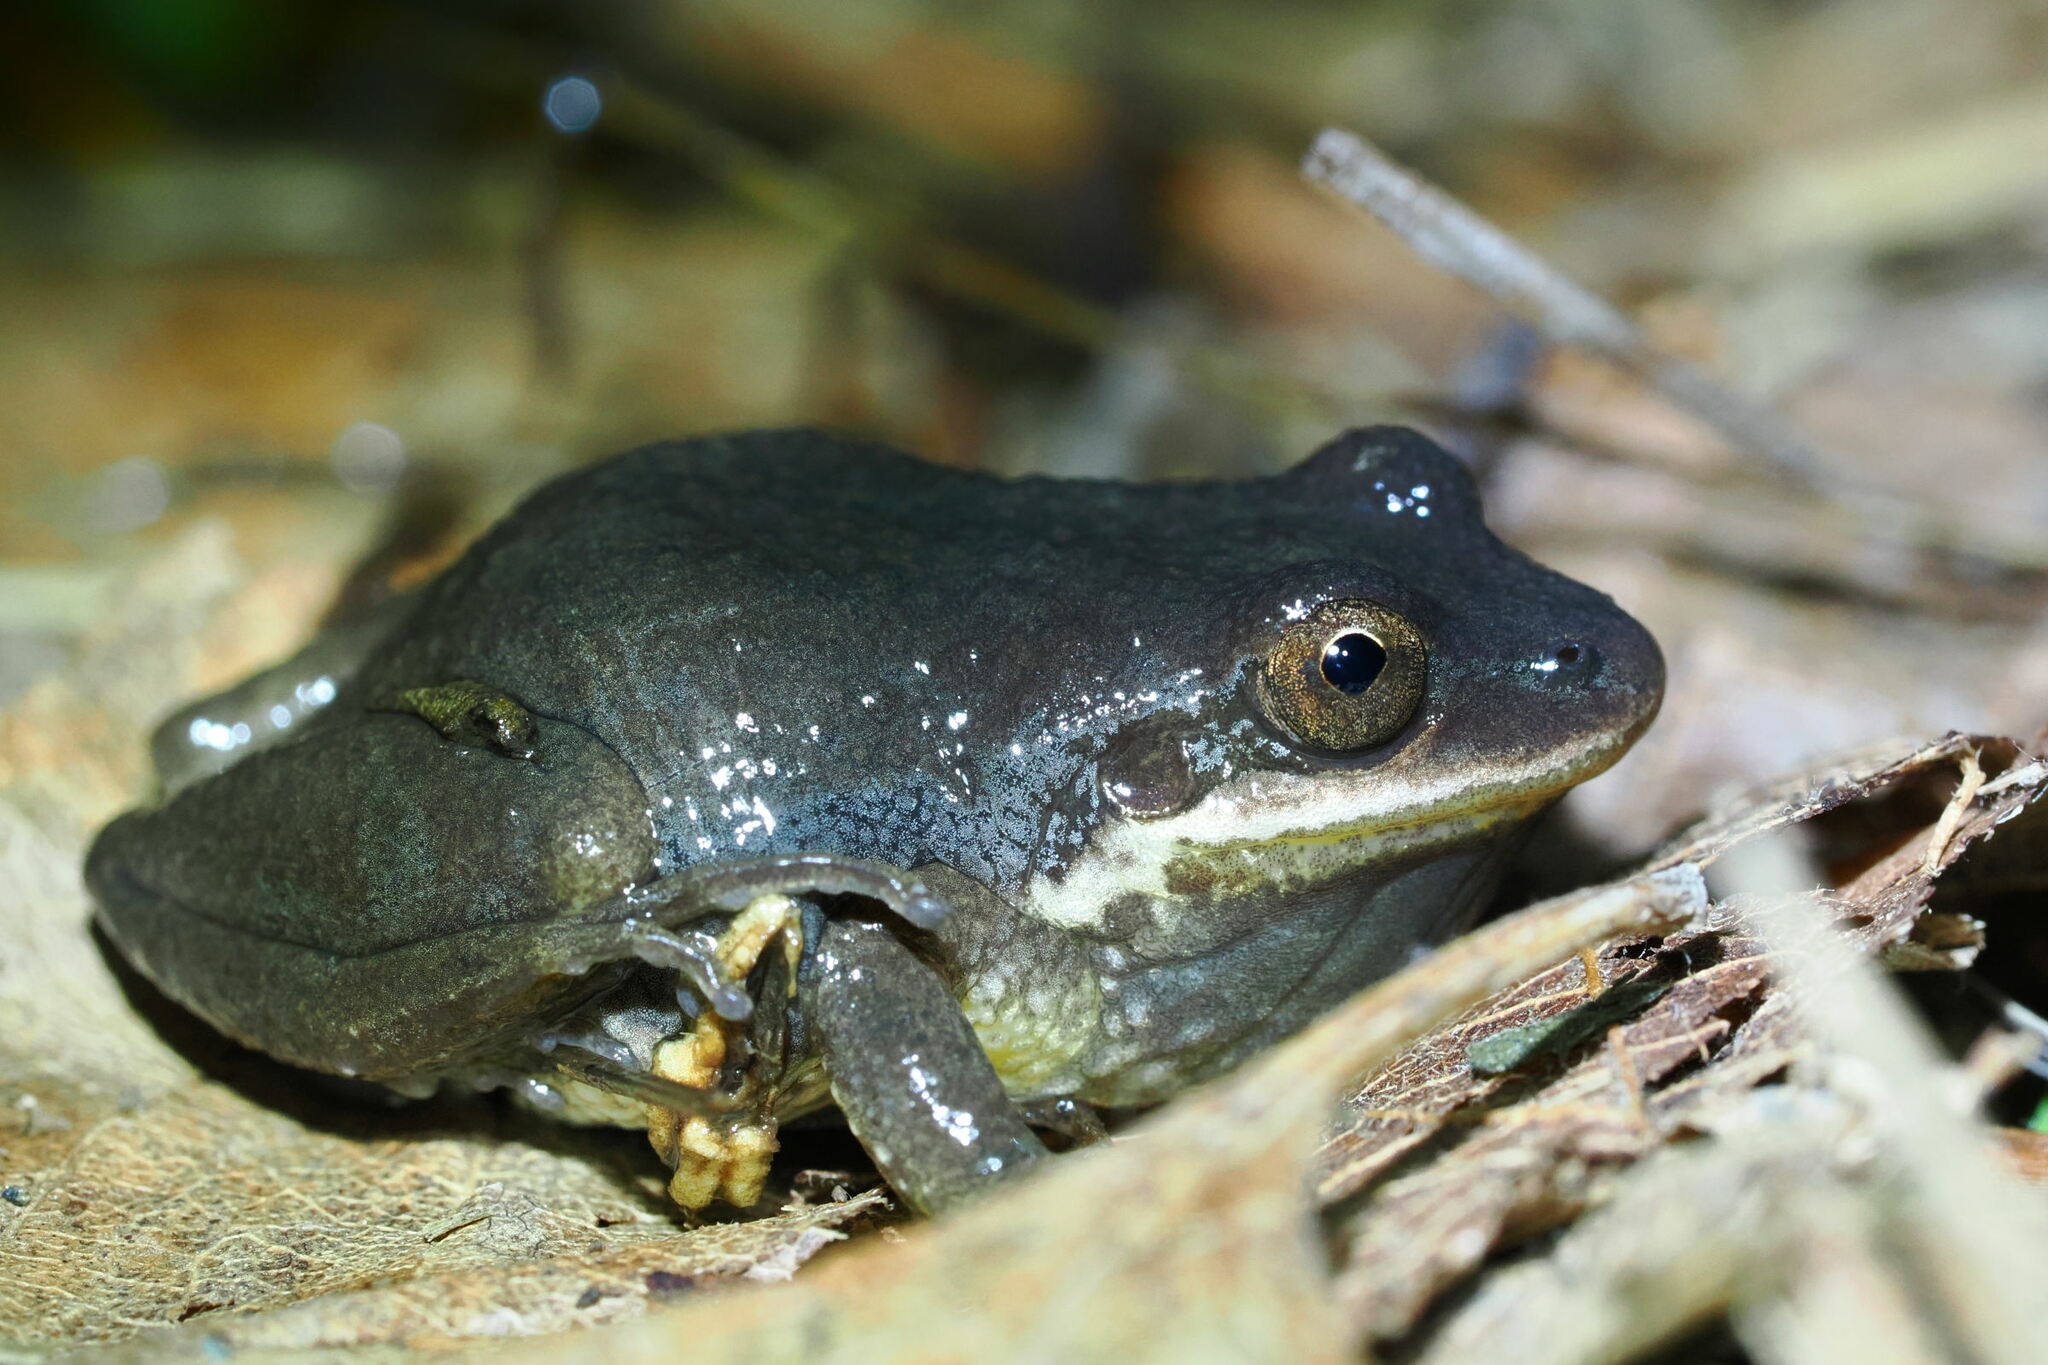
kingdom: Animalia
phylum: Chordata
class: Amphibia
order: Anura
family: Hylidae
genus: Pseudacris
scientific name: Pseudacris feriarum
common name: Upland chorus frog
